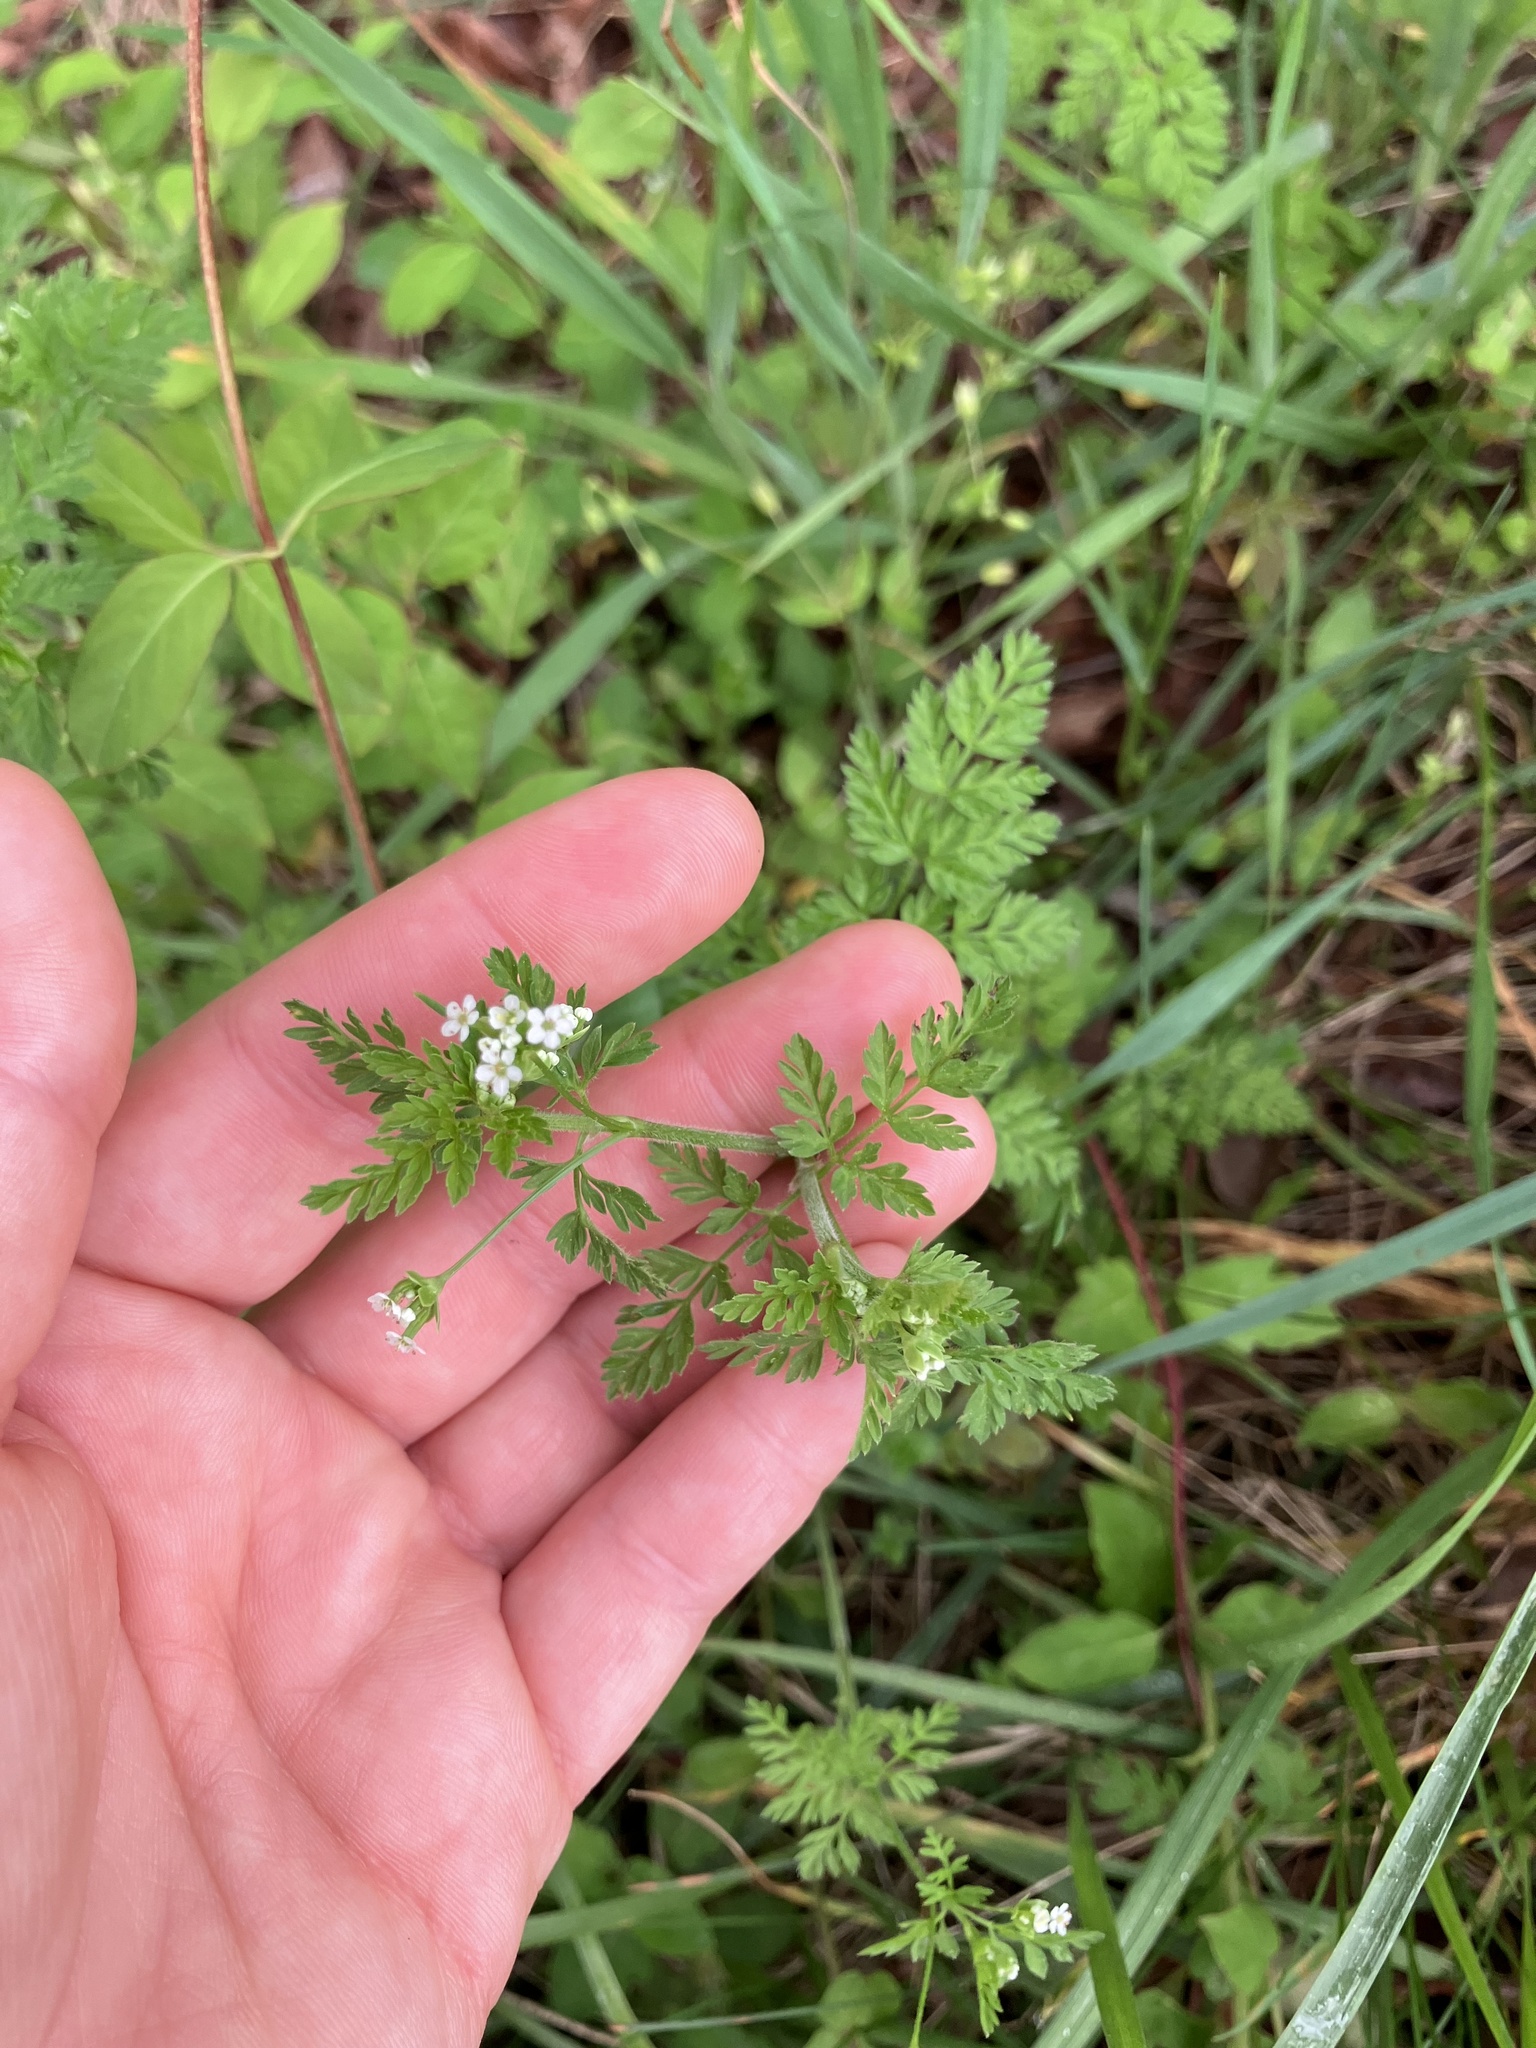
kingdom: Plantae
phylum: Tracheophyta
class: Magnoliopsida
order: Apiales
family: Apiaceae
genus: Chaerophyllum
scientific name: Chaerophyllum tainturieri
